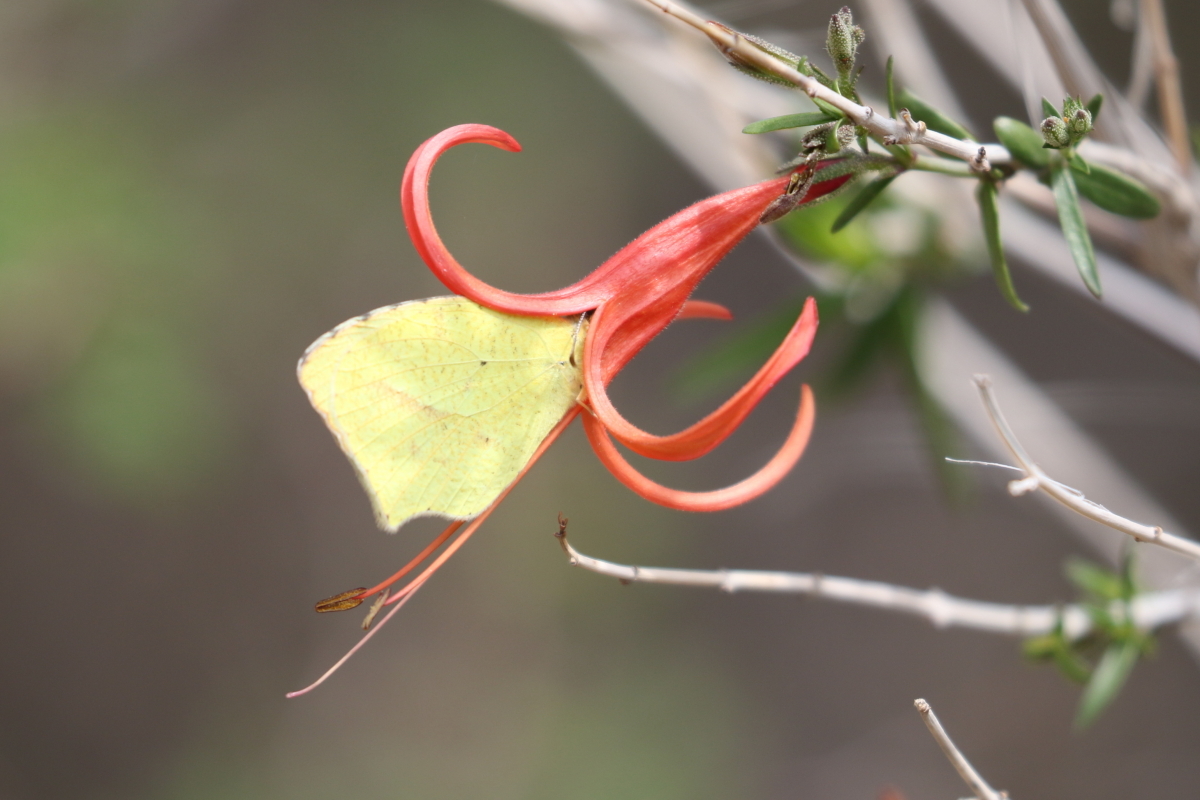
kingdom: Animalia
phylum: Arthropoda
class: Insecta
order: Lepidoptera
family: Pieridae
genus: Abaeis
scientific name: Abaeis mexicana
